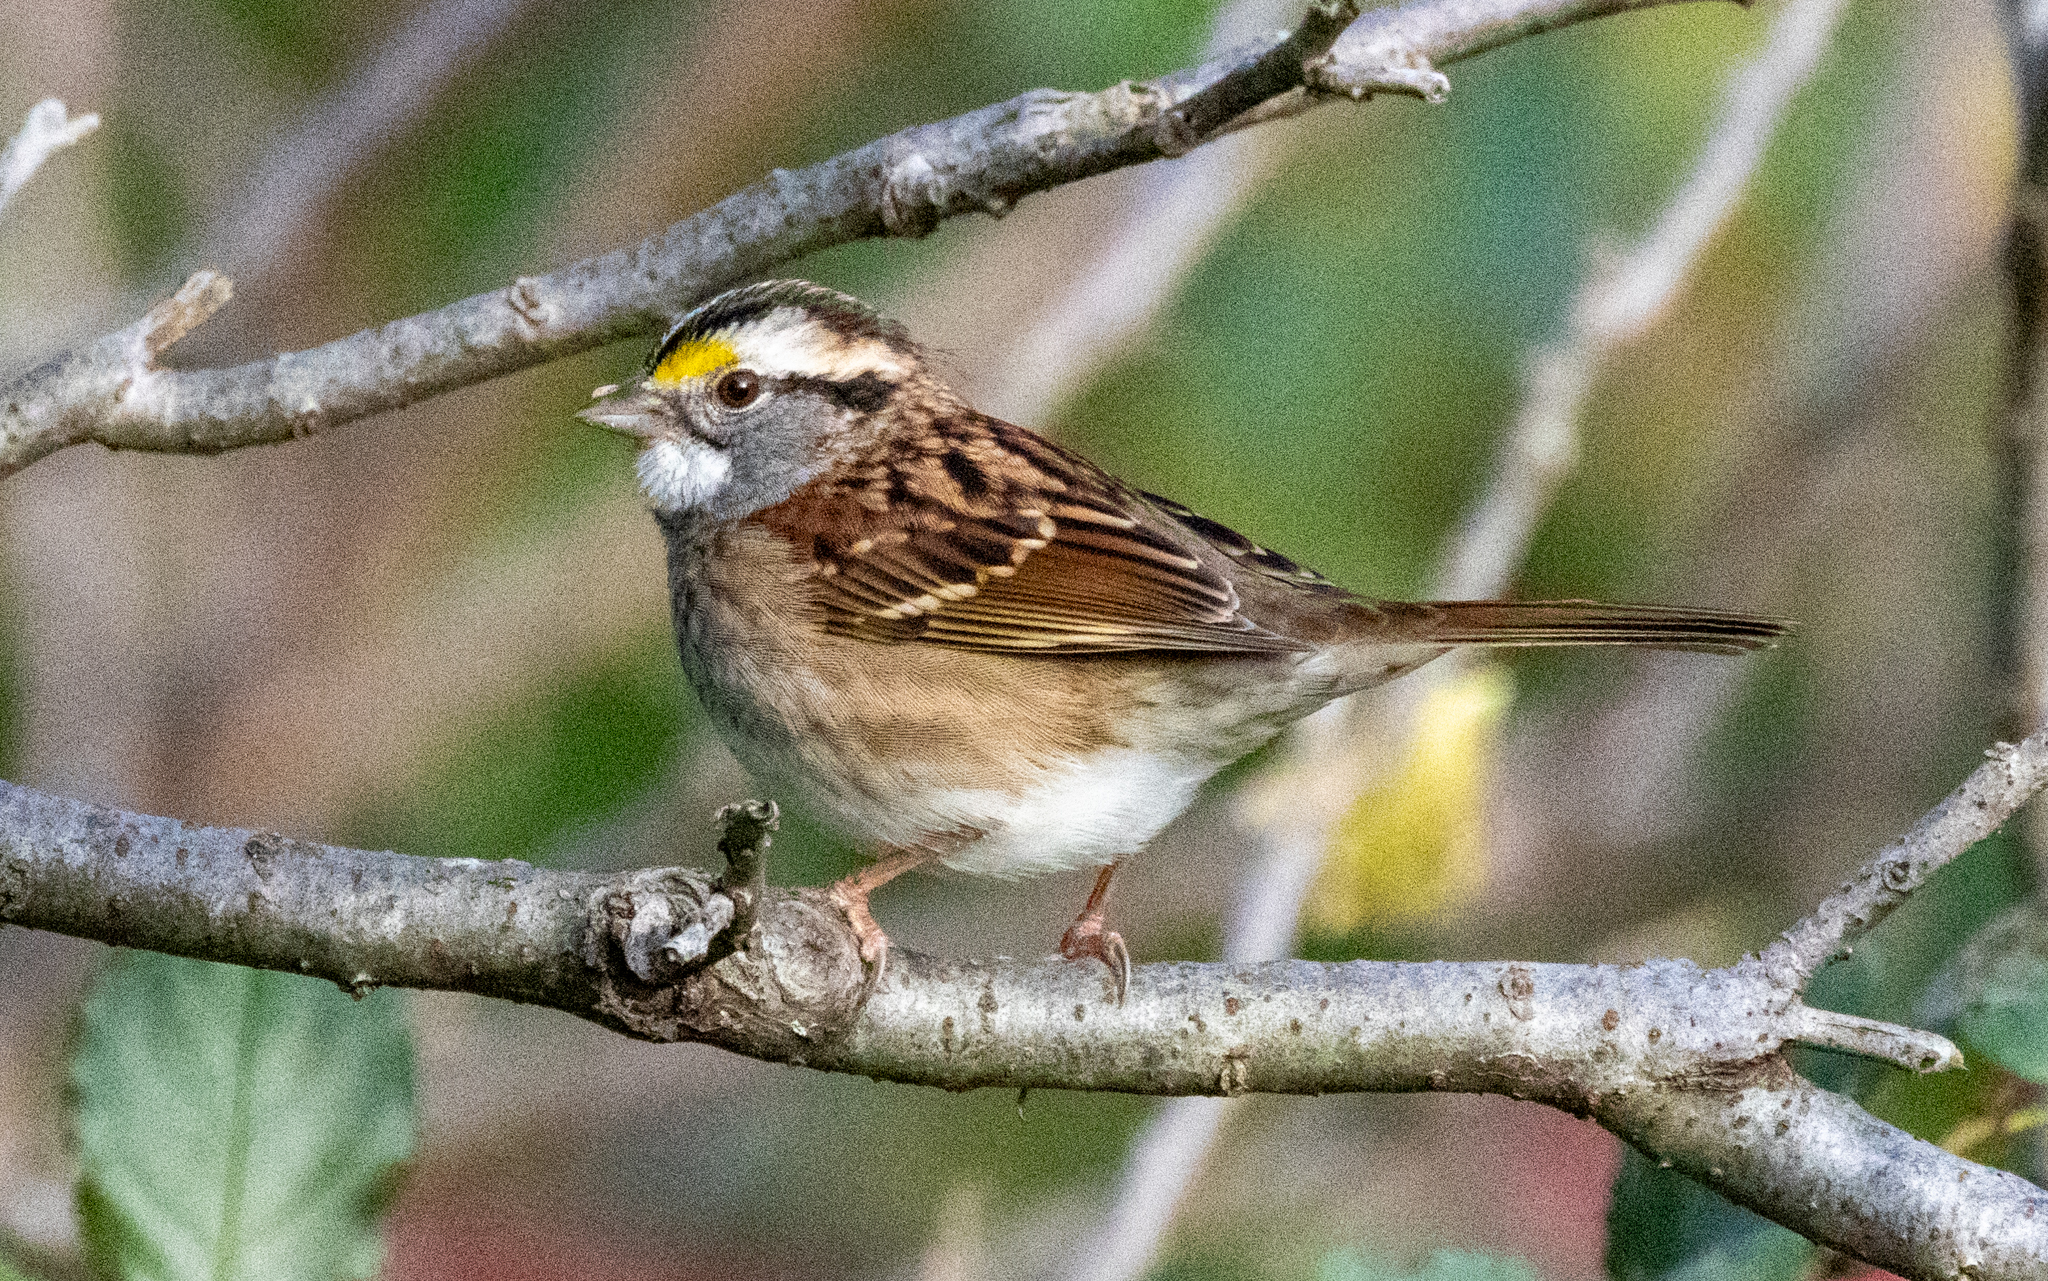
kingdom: Animalia
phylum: Chordata
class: Aves
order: Passeriformes
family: Passerellidae
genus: Zonotrichia
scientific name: Zonotrichia albicollis
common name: White-throated sparrow
